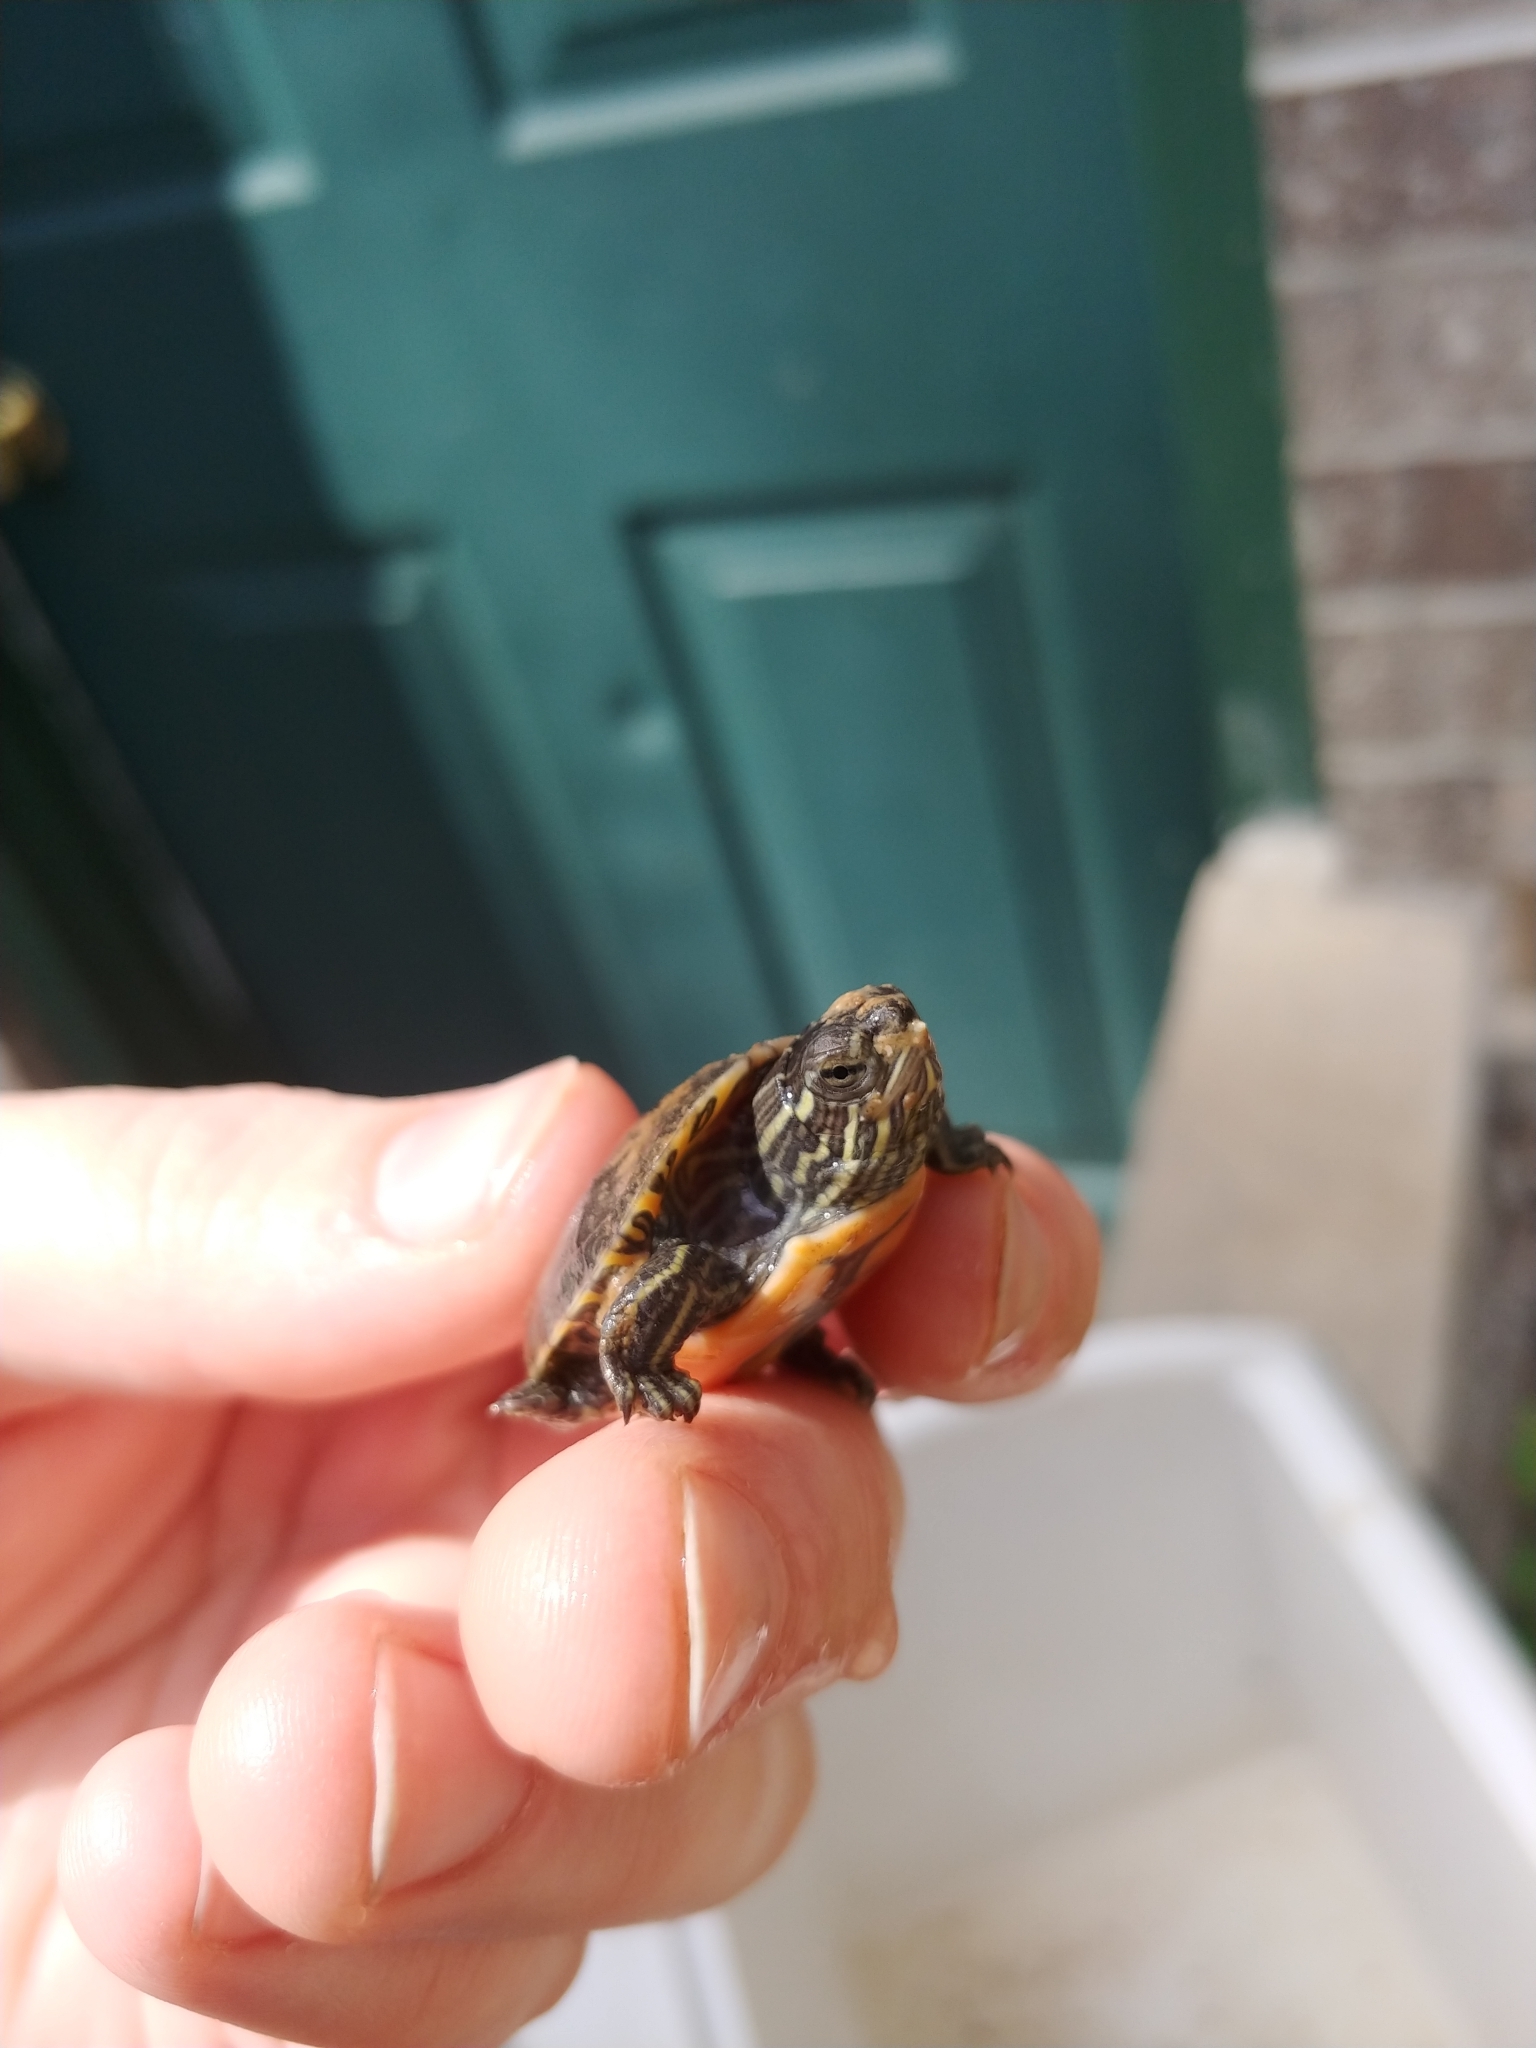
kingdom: Animalia
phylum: Chordata
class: Testudines
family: Emydidae
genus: Chrysemys
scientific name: Chrysemys picta
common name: Painted turtle
